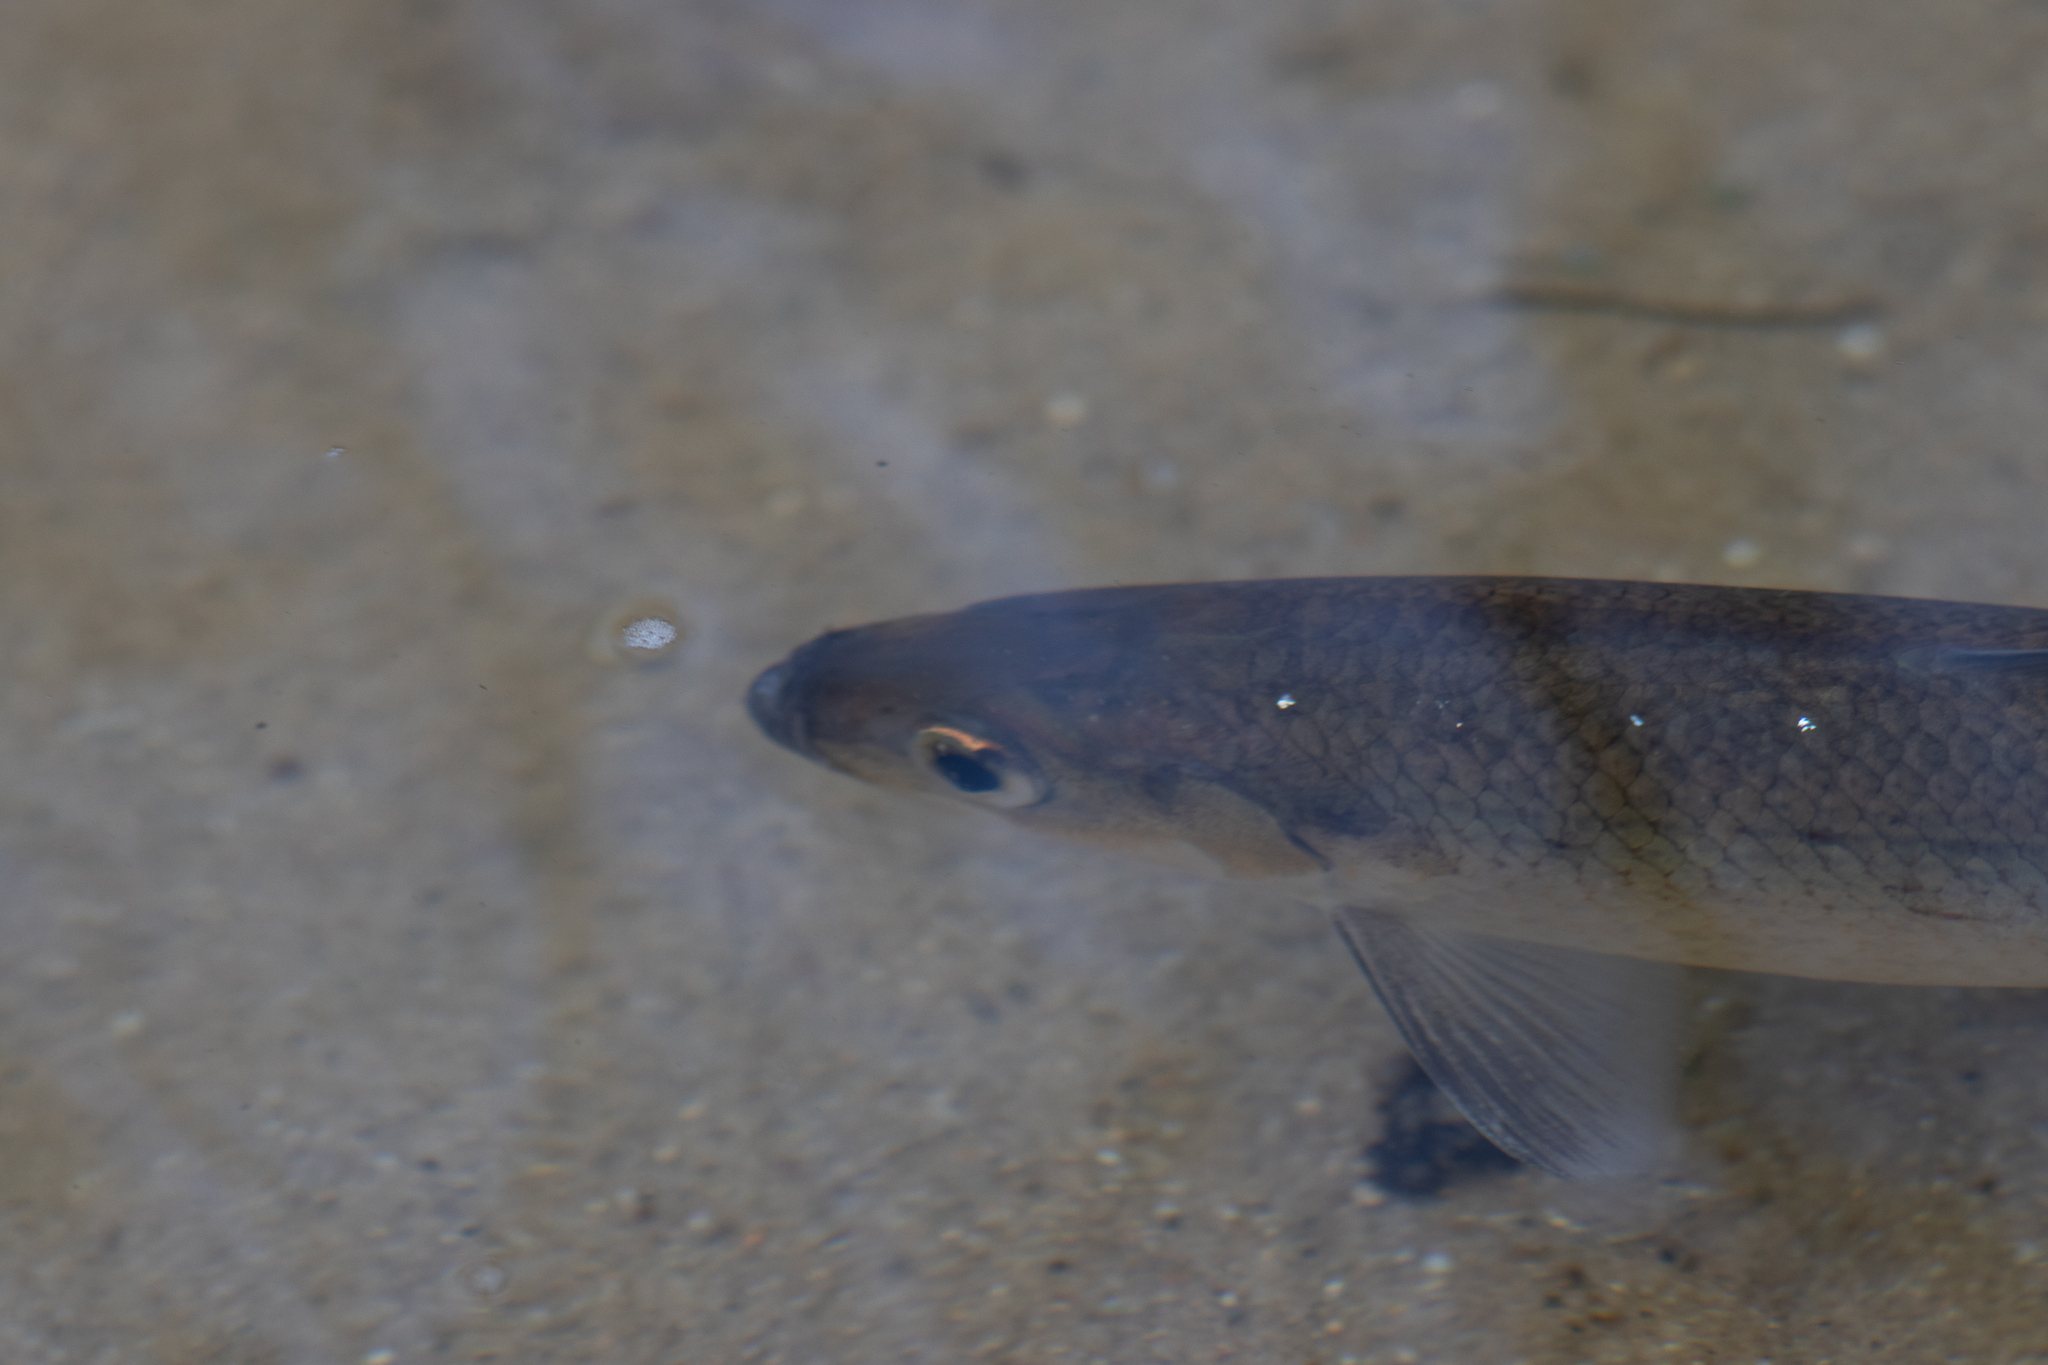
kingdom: Animalia
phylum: Chordata
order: Clupeiformes
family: Clupeidae
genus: Alosa
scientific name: Alosa pseudoharengus
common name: Alewife
